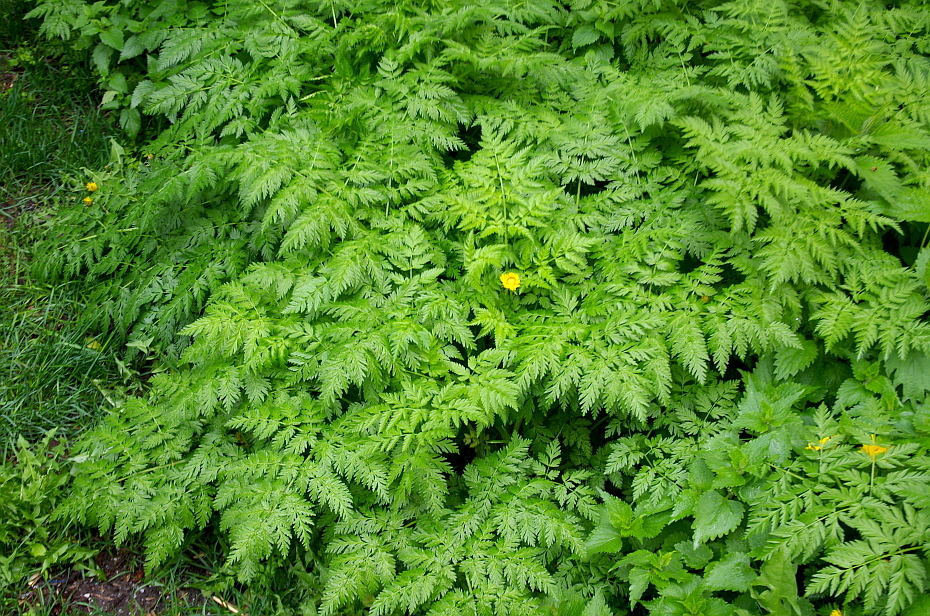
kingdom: Plantae
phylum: Tracheophyta
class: Magnoliopsida
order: Apiales
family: Apiaceae
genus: Anthriscus
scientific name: Anthriscus sylvestris
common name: Cow parsley
